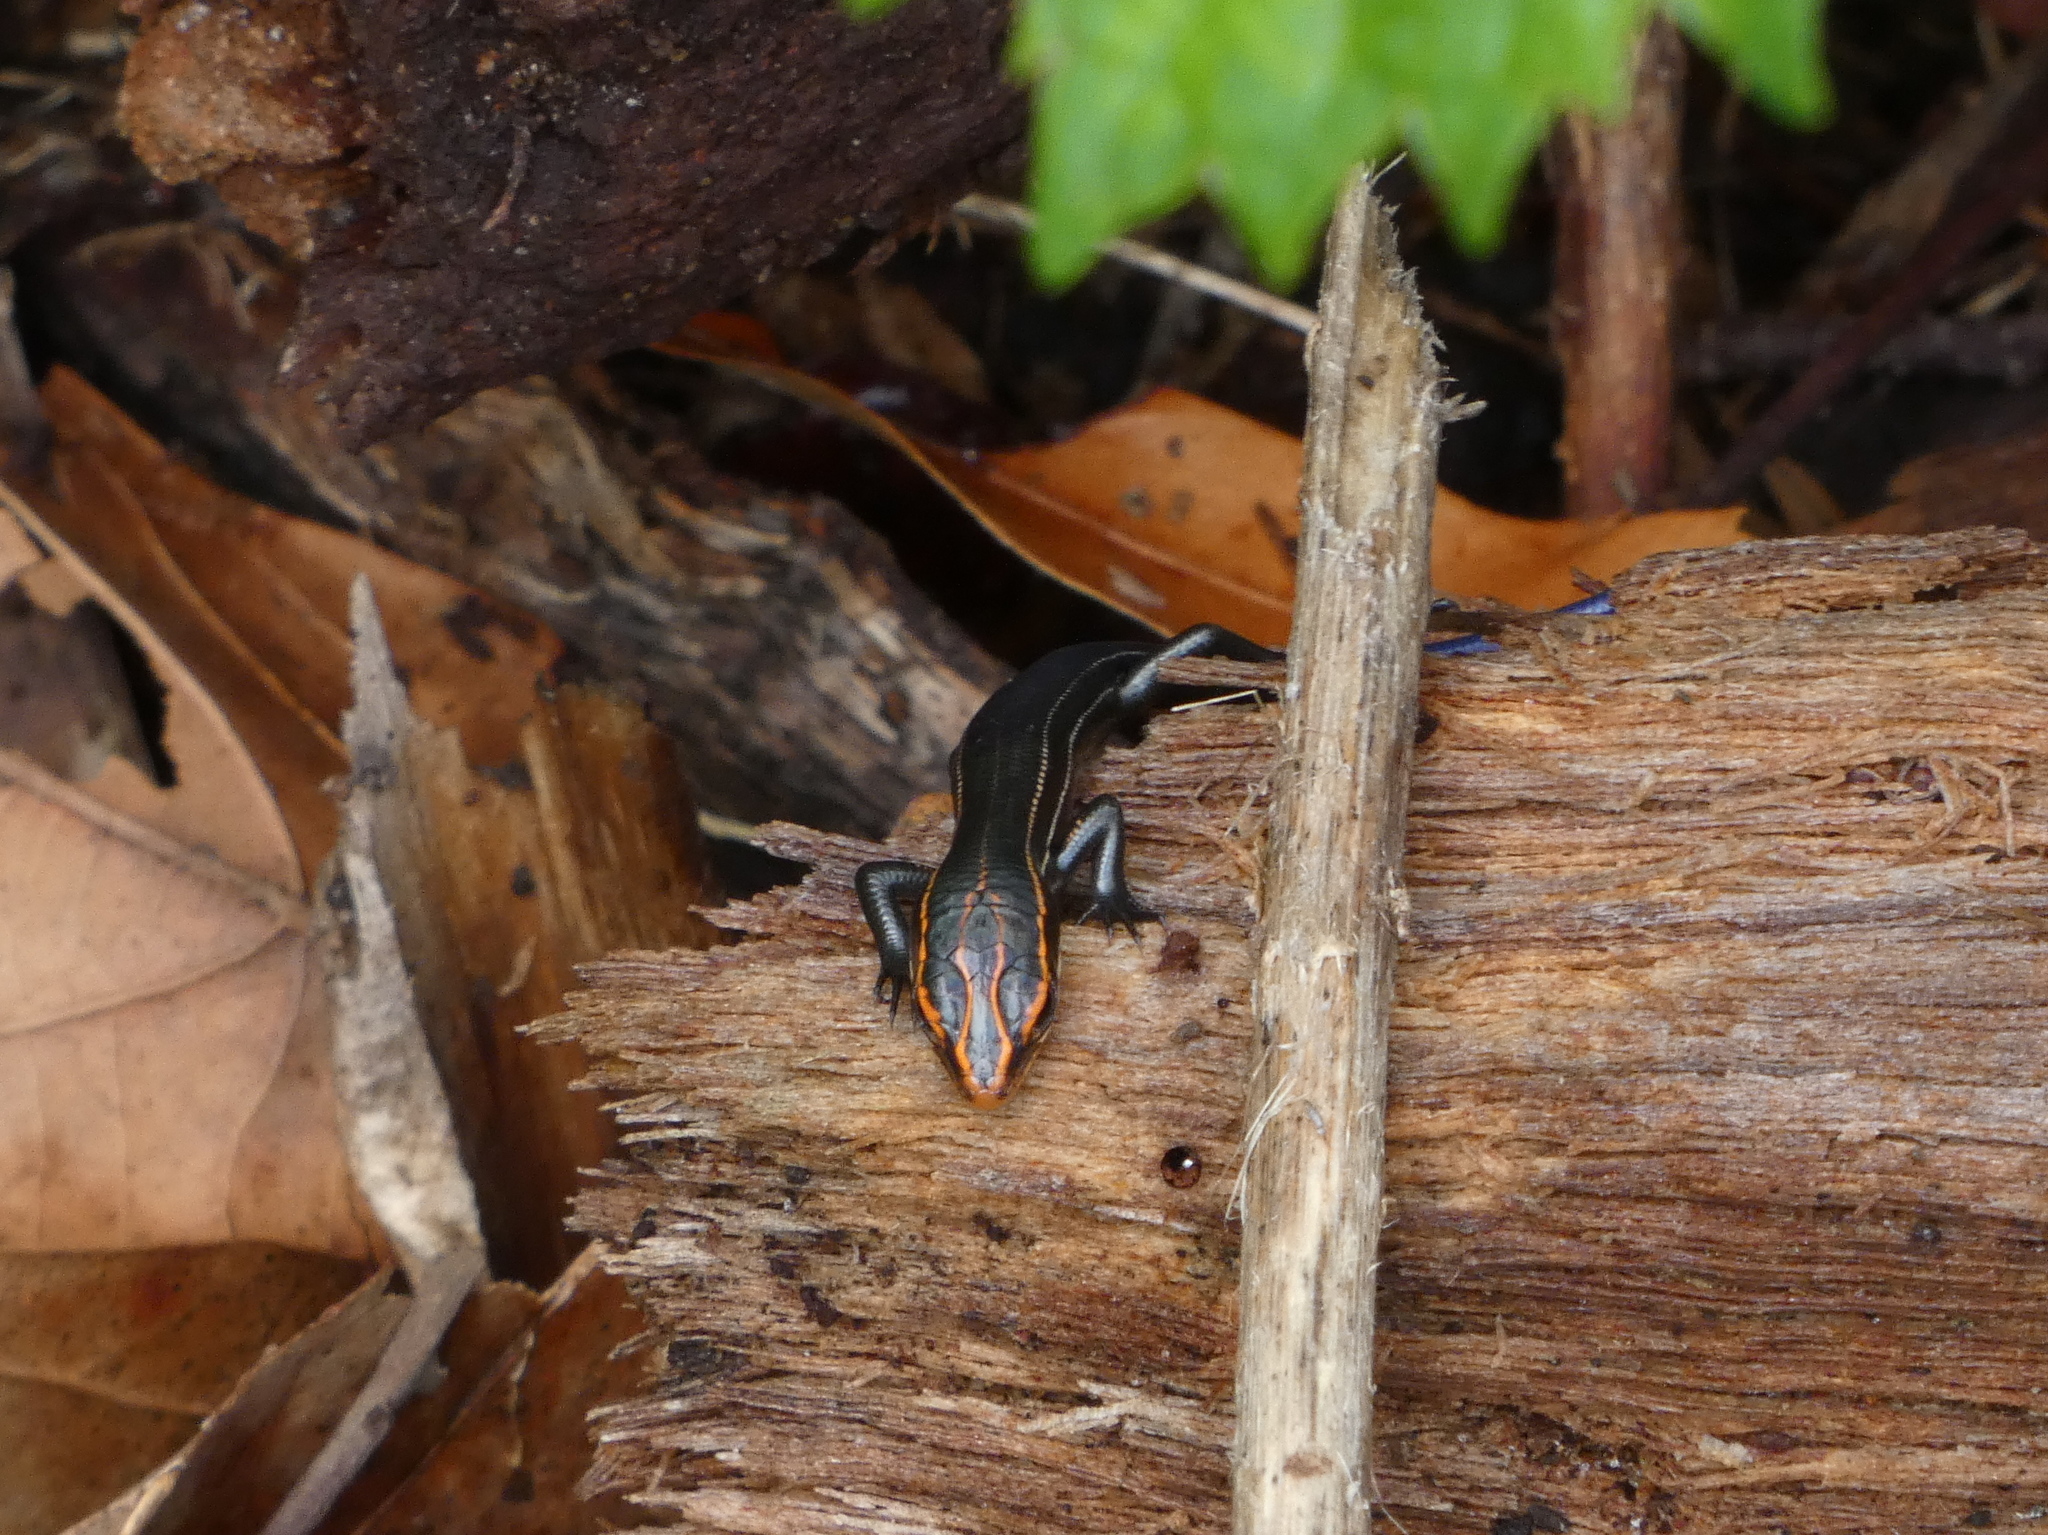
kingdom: Animalia
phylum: Chordata
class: Squamata
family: Scincidae
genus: Plestiodon
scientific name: Plestiodon inexpectatus
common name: Southeastern five-lined skink
